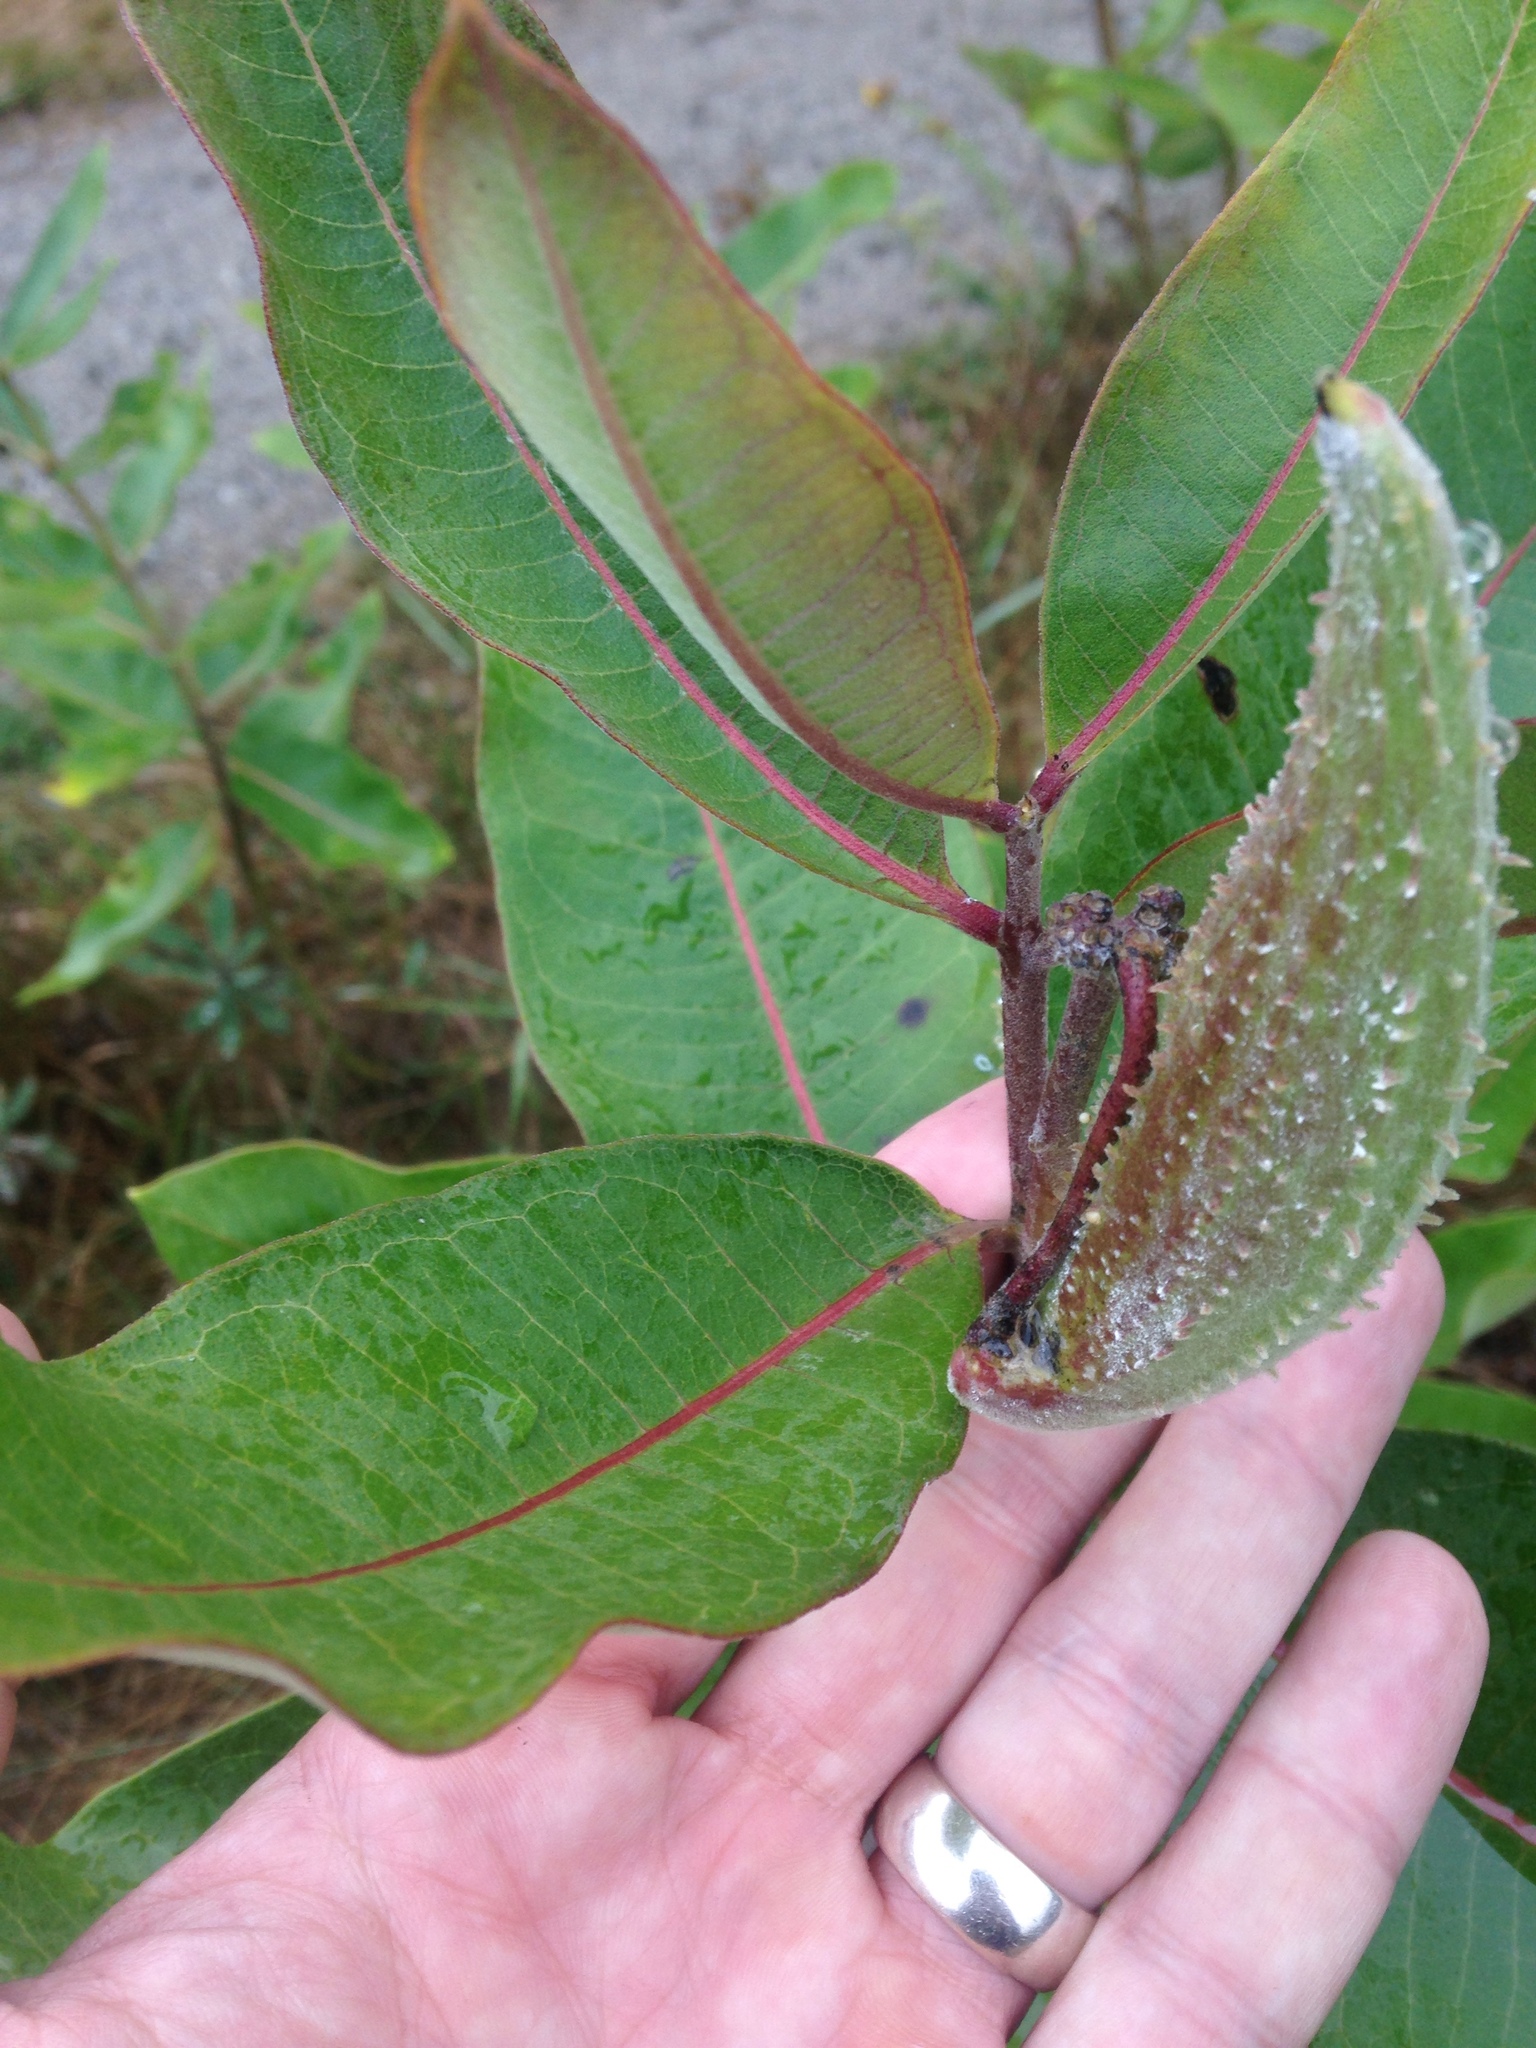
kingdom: Plantae
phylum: Tracheophyta
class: Magnoliopsida
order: Gentianales
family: Apocynaceae
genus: Asclepias
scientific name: Asclepias syriaca
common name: Common milkweed
